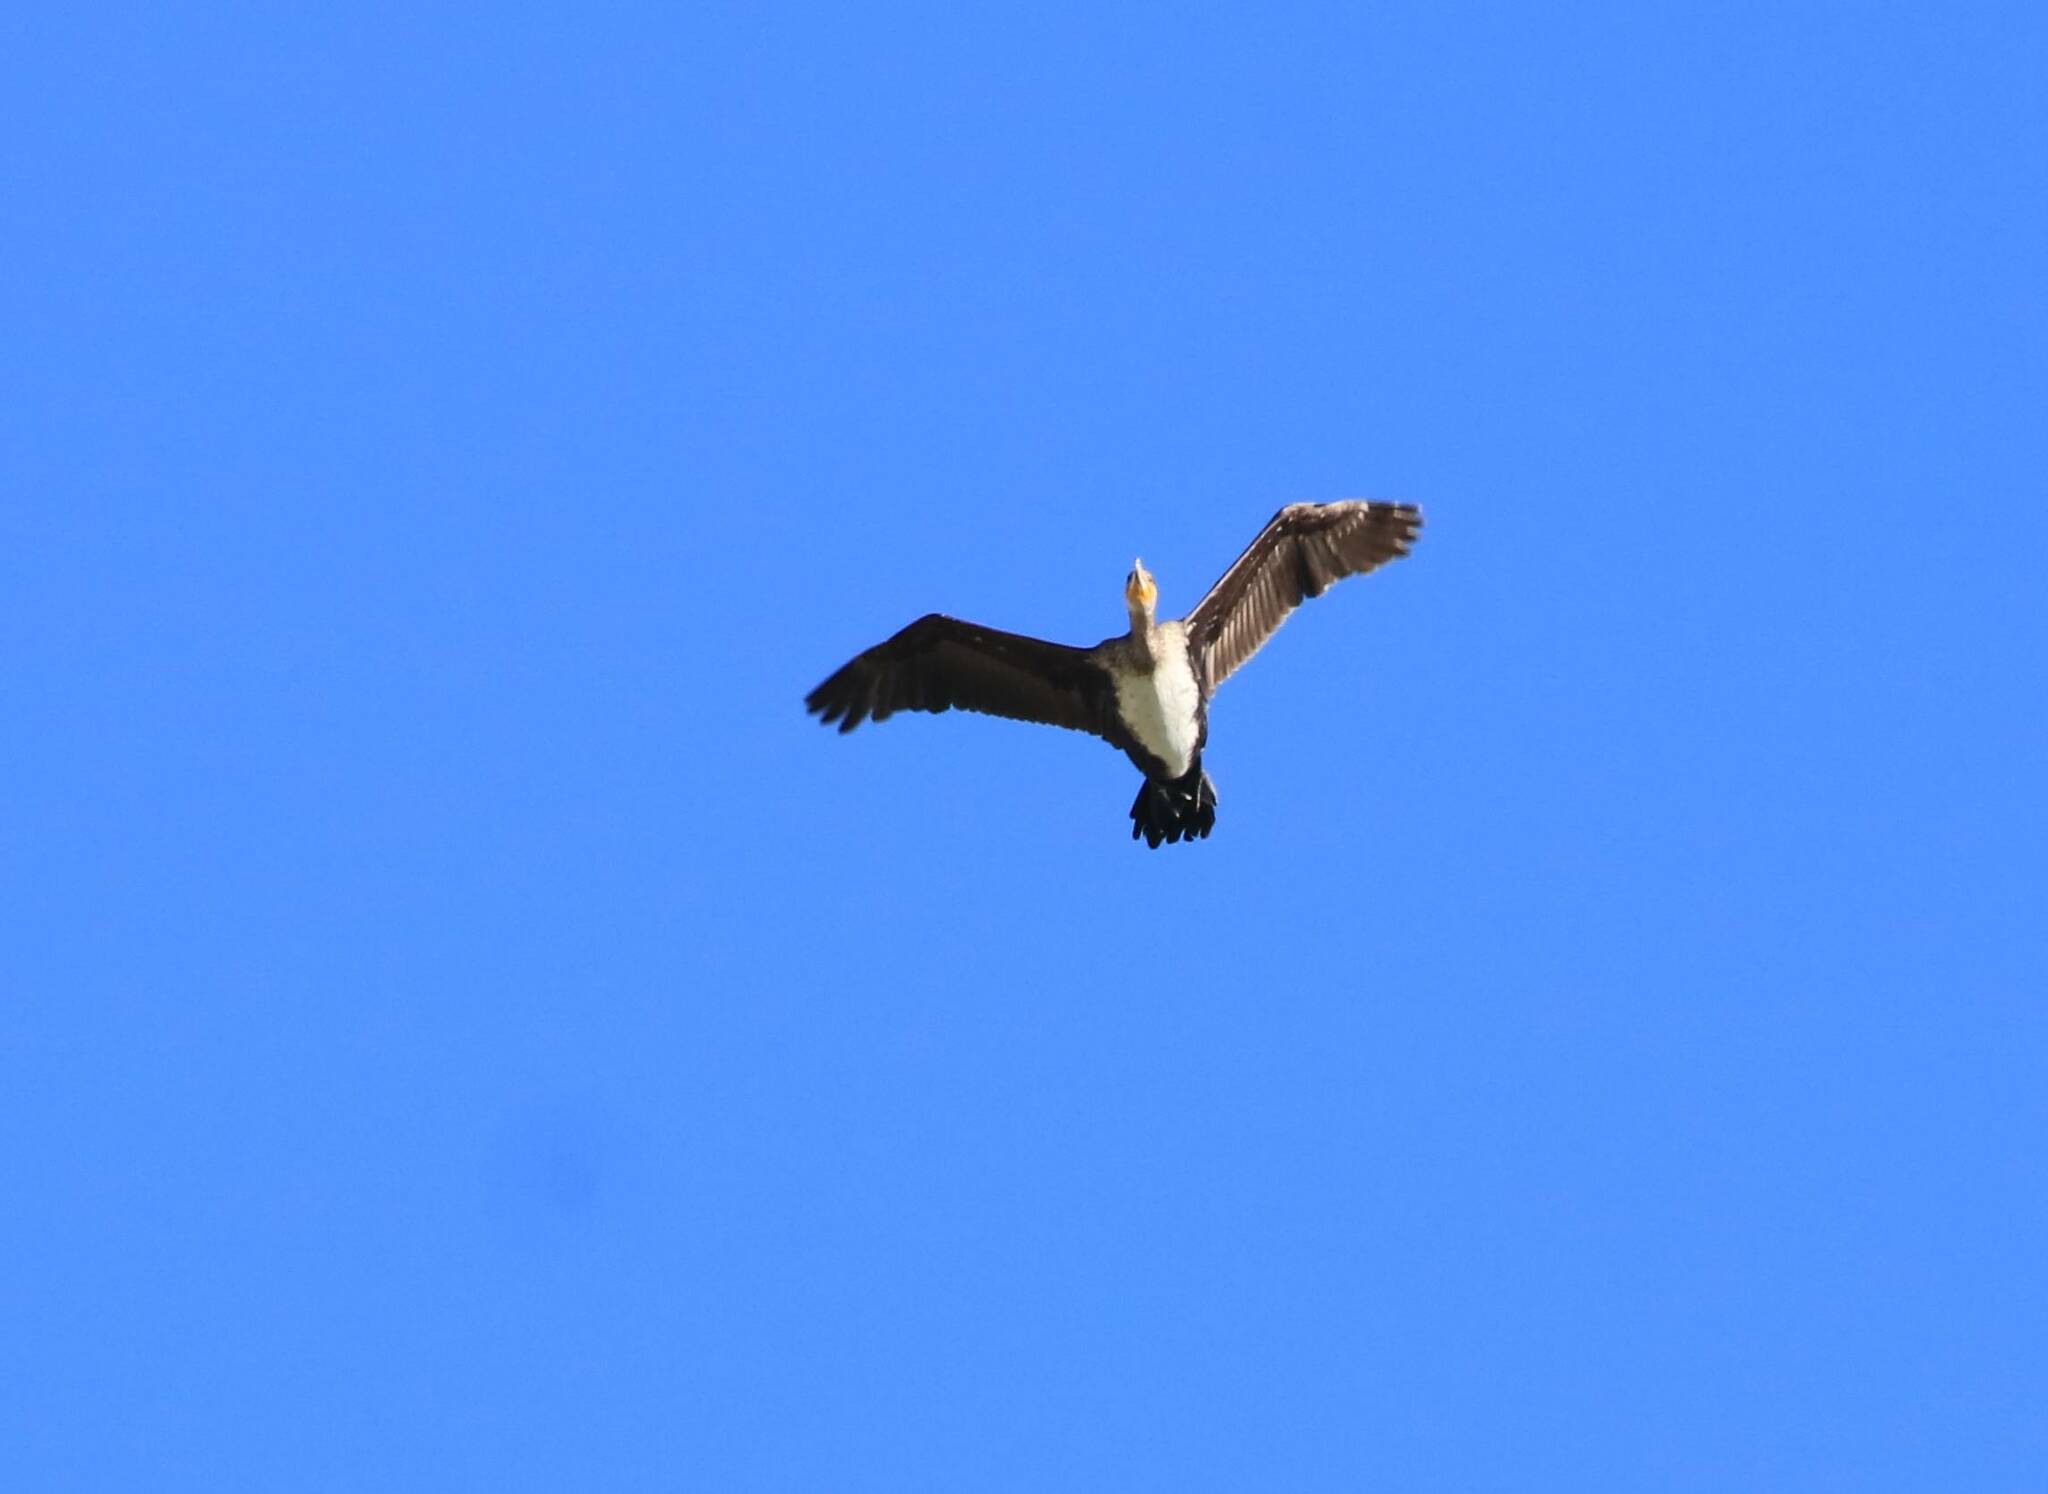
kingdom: Animalia
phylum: Chordata
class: Aves
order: Suliformes
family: Phalacrocoracidae
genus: Phalacrocorax
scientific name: Phalacrocorax carbo
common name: Great cormorant
